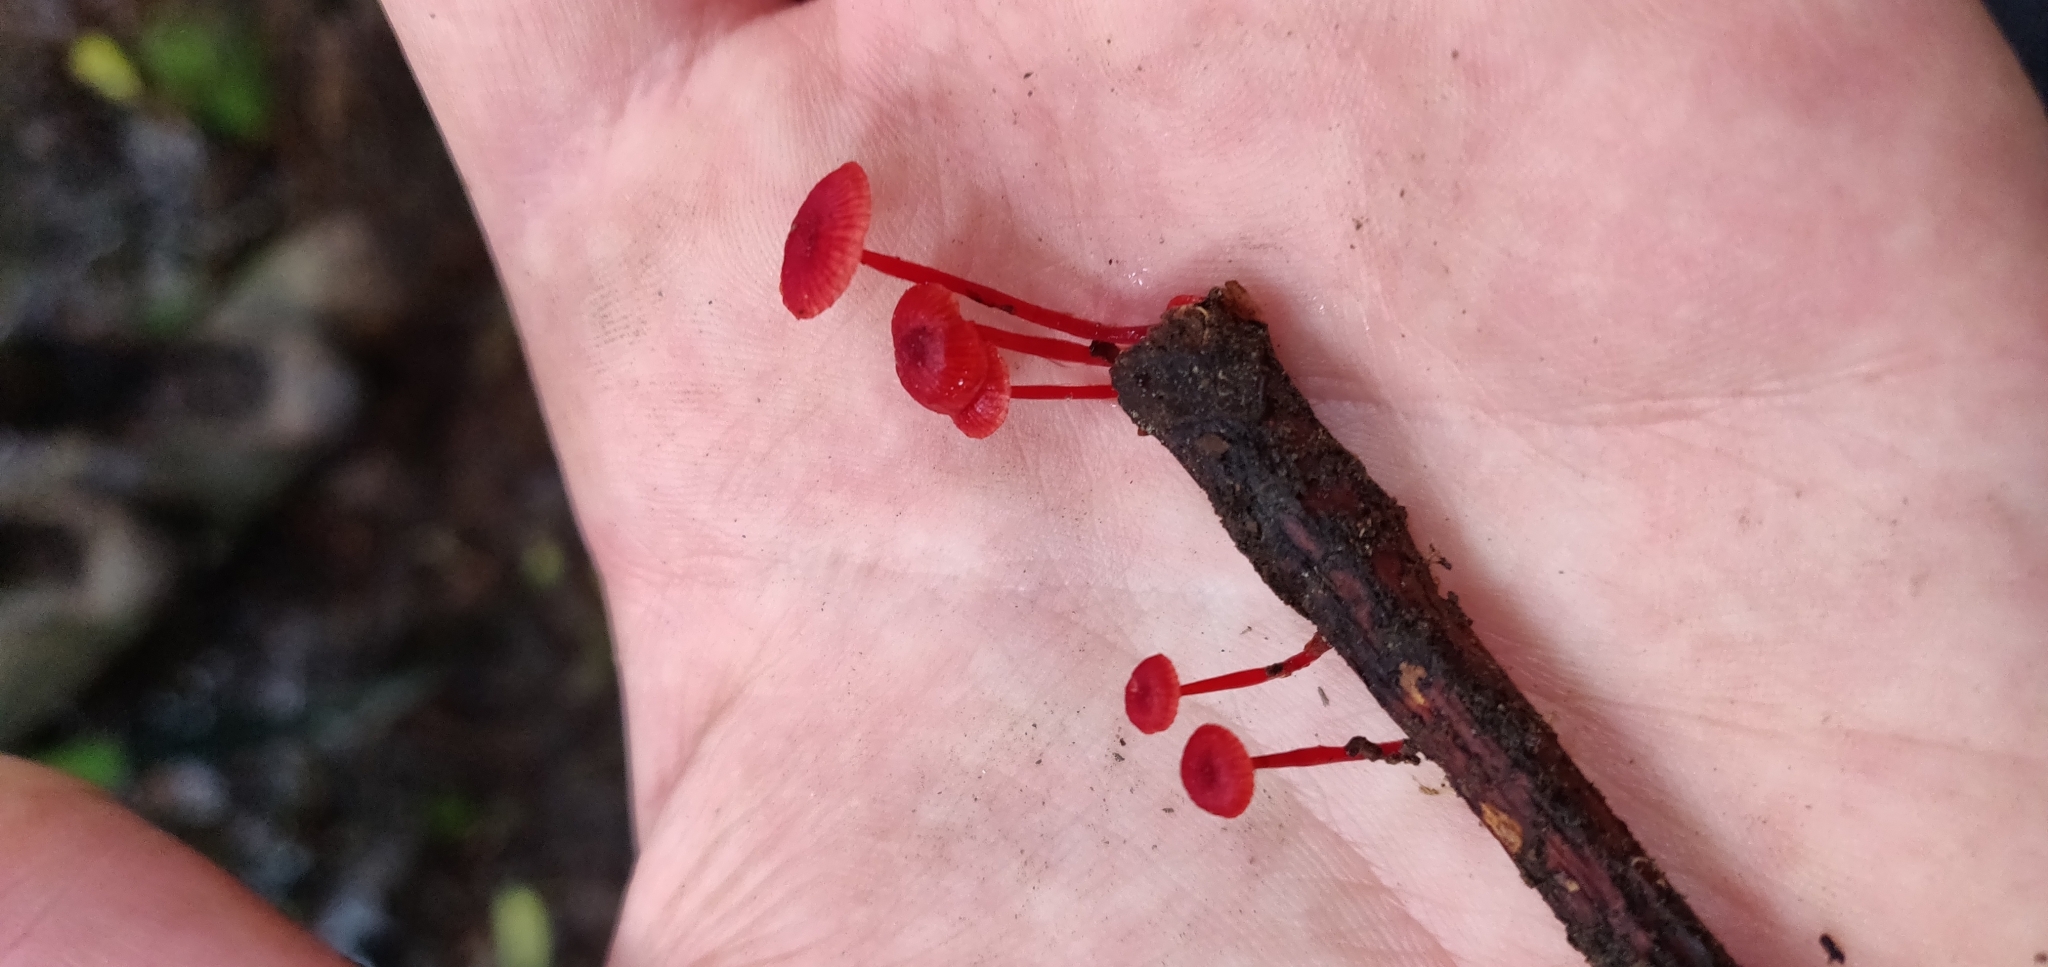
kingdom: Fungi
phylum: Basidiomycota
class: Agaricomycetes
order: Agaricales
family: Mycenaceae
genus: Cruentomycena
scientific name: Cruentomycena viscidocruenta
